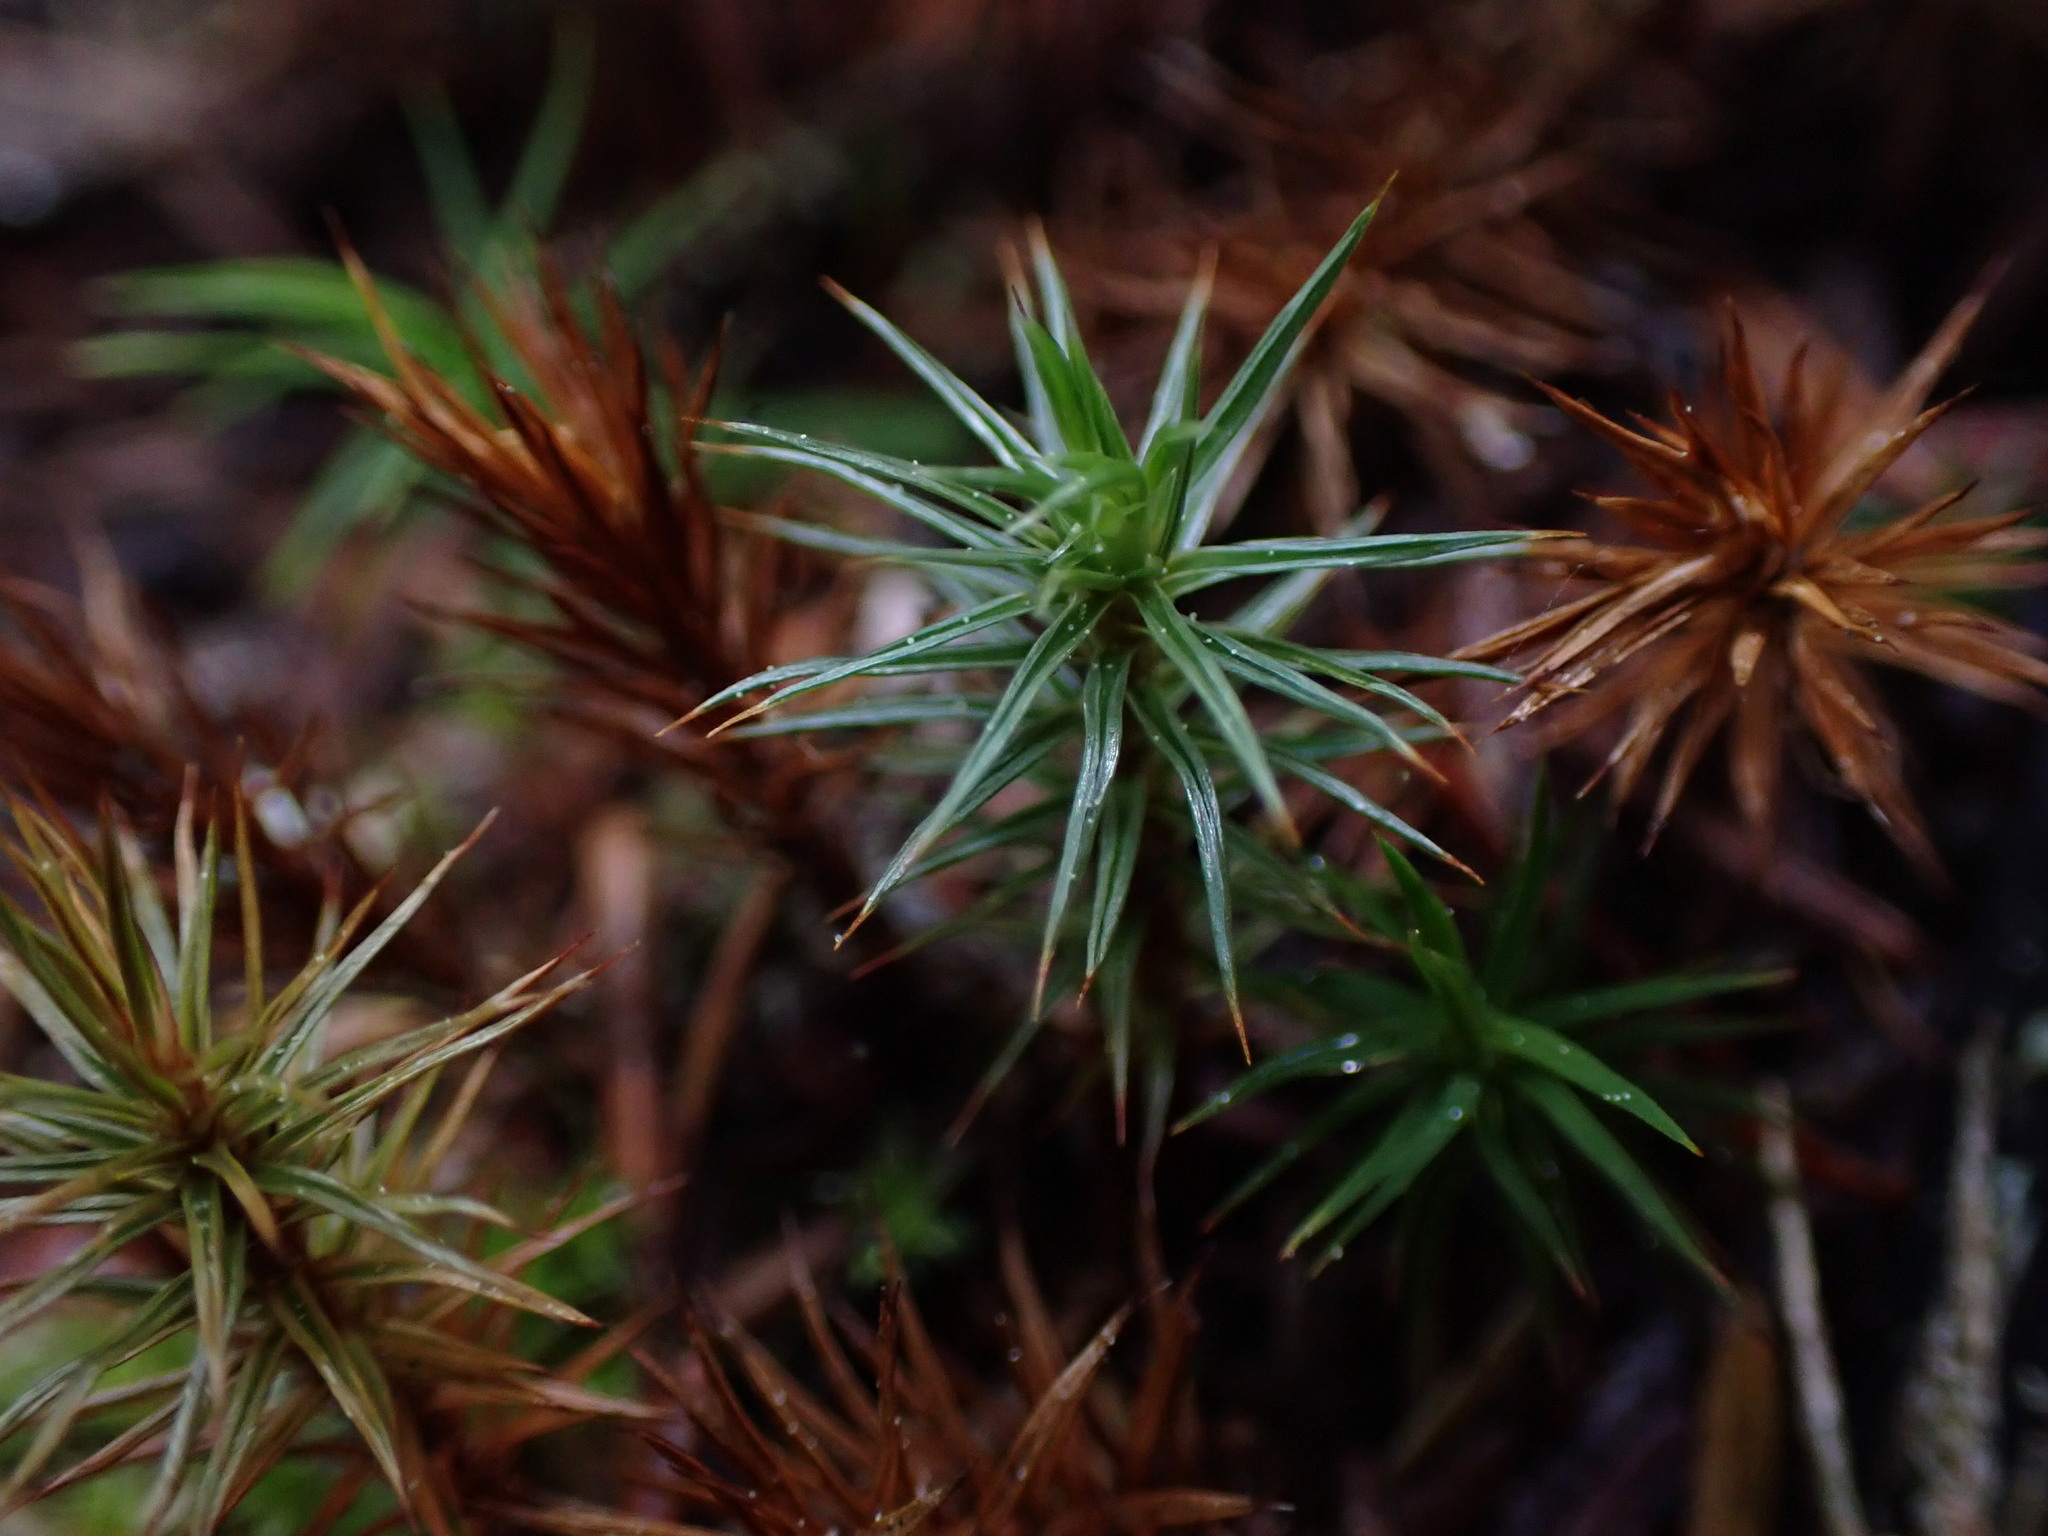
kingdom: Plantae
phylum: Bryophyta
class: Polytrichopsida
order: Polytrichales
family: Polytrichaceae
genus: Polytrichum
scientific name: Polytrichum juniperinum
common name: Juniper haircap moss
